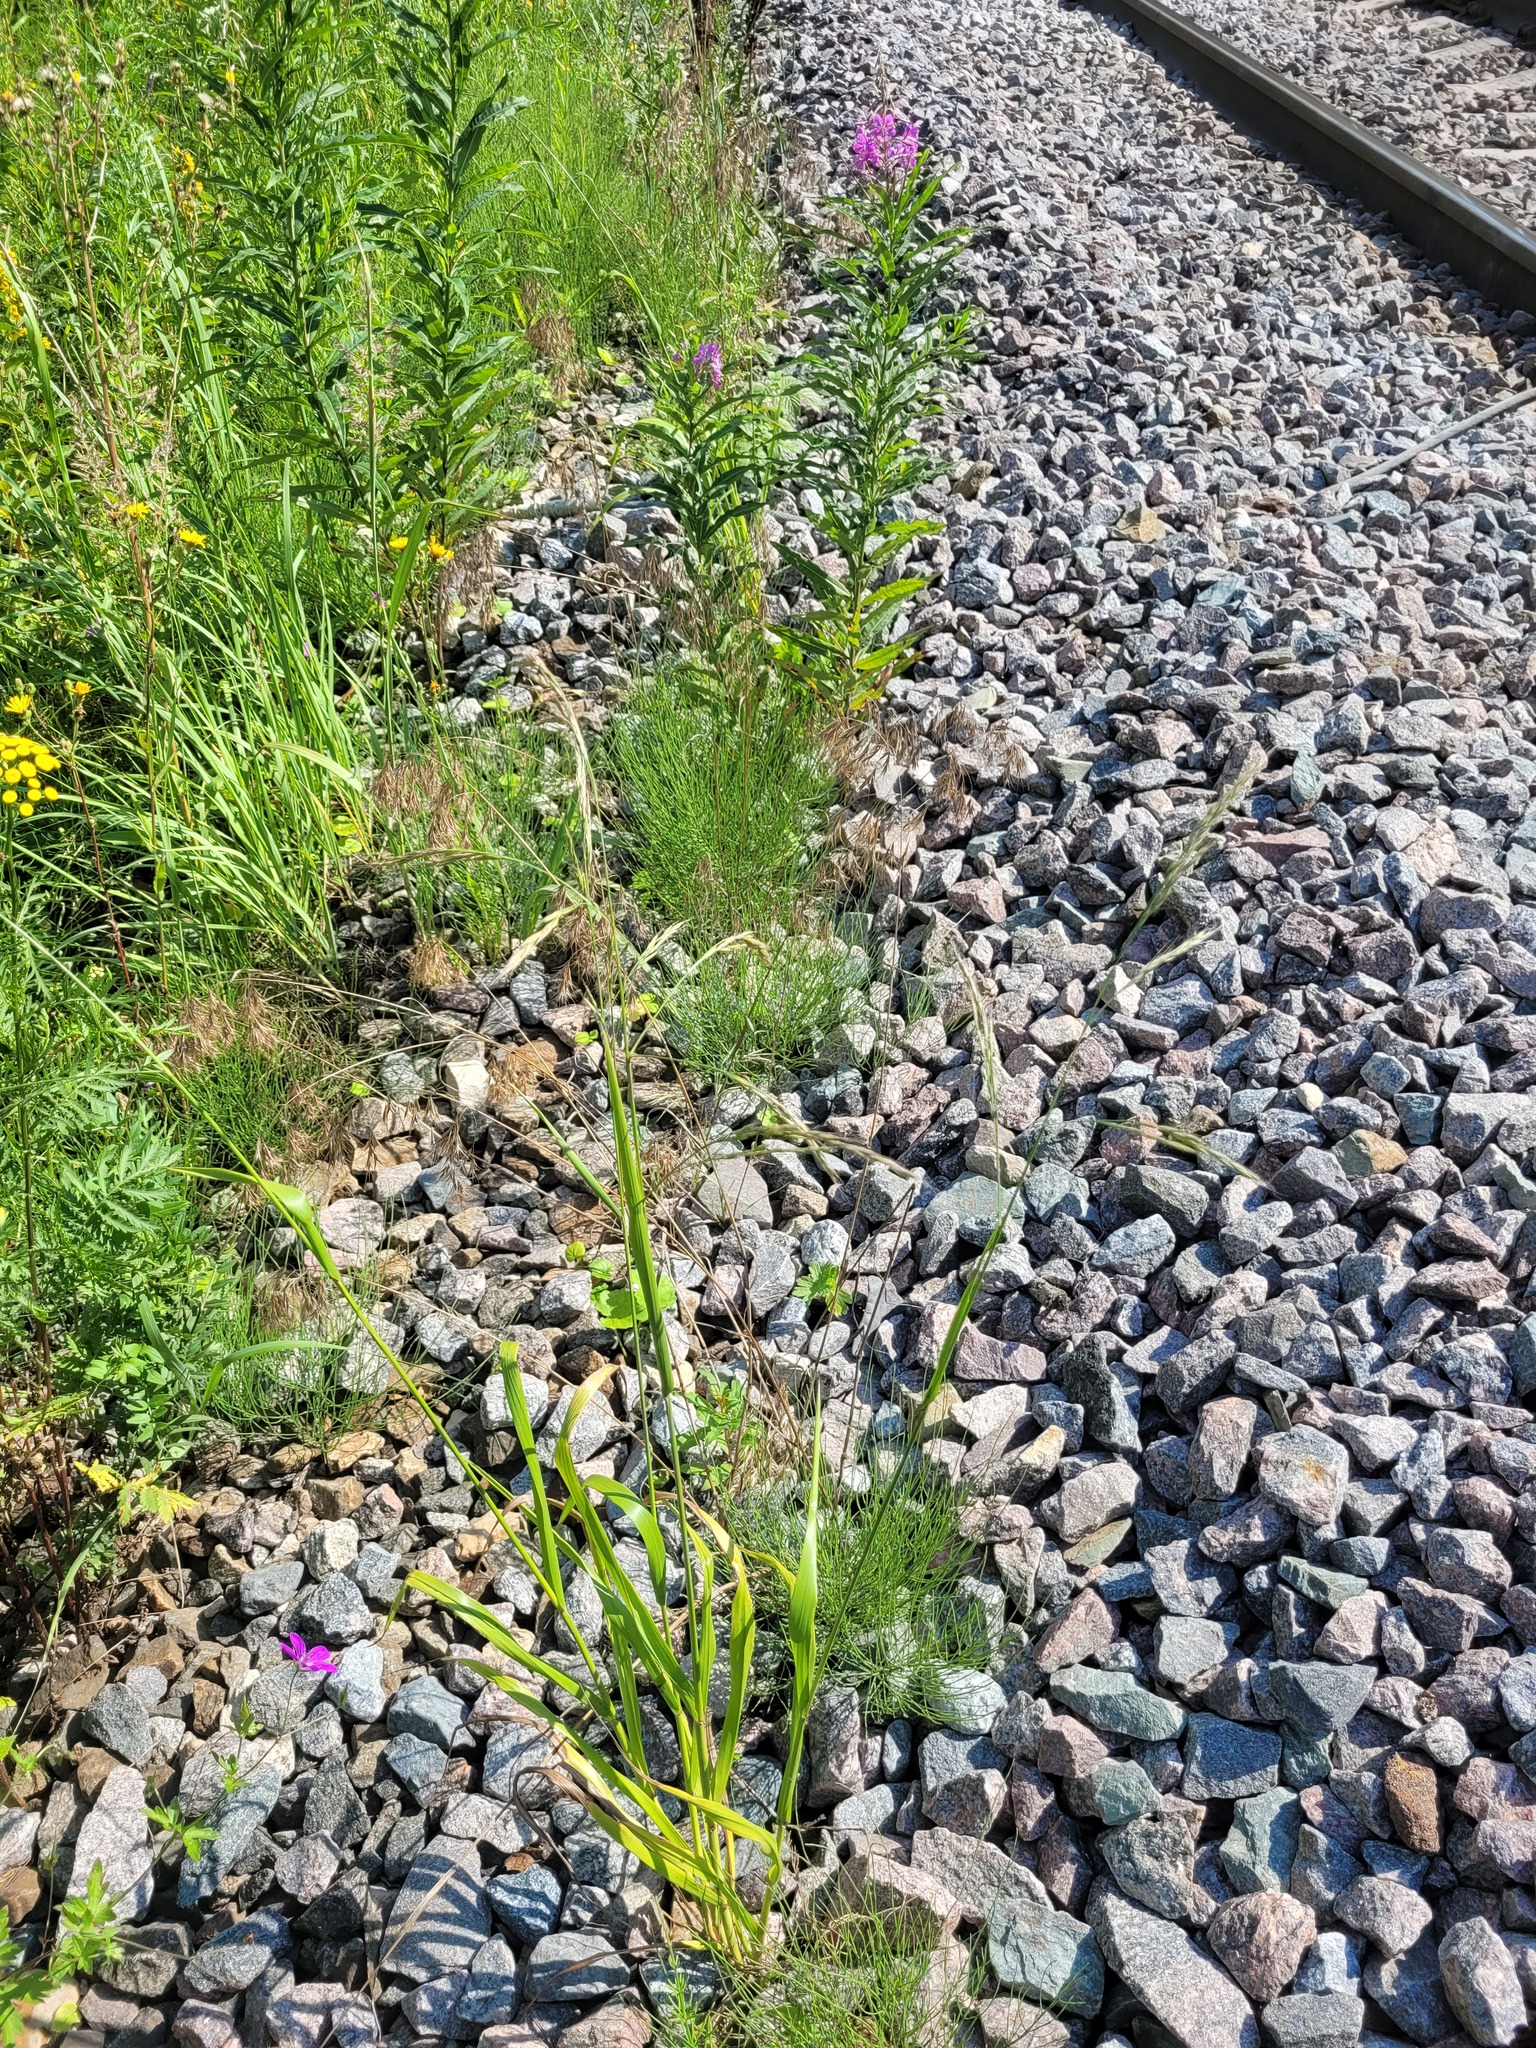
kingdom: Plantae
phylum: Tracheophyta
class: Liliopsida
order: Poales
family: Poaceae
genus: Lolium
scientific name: Lolium arundinaceum
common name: Reed fescue
